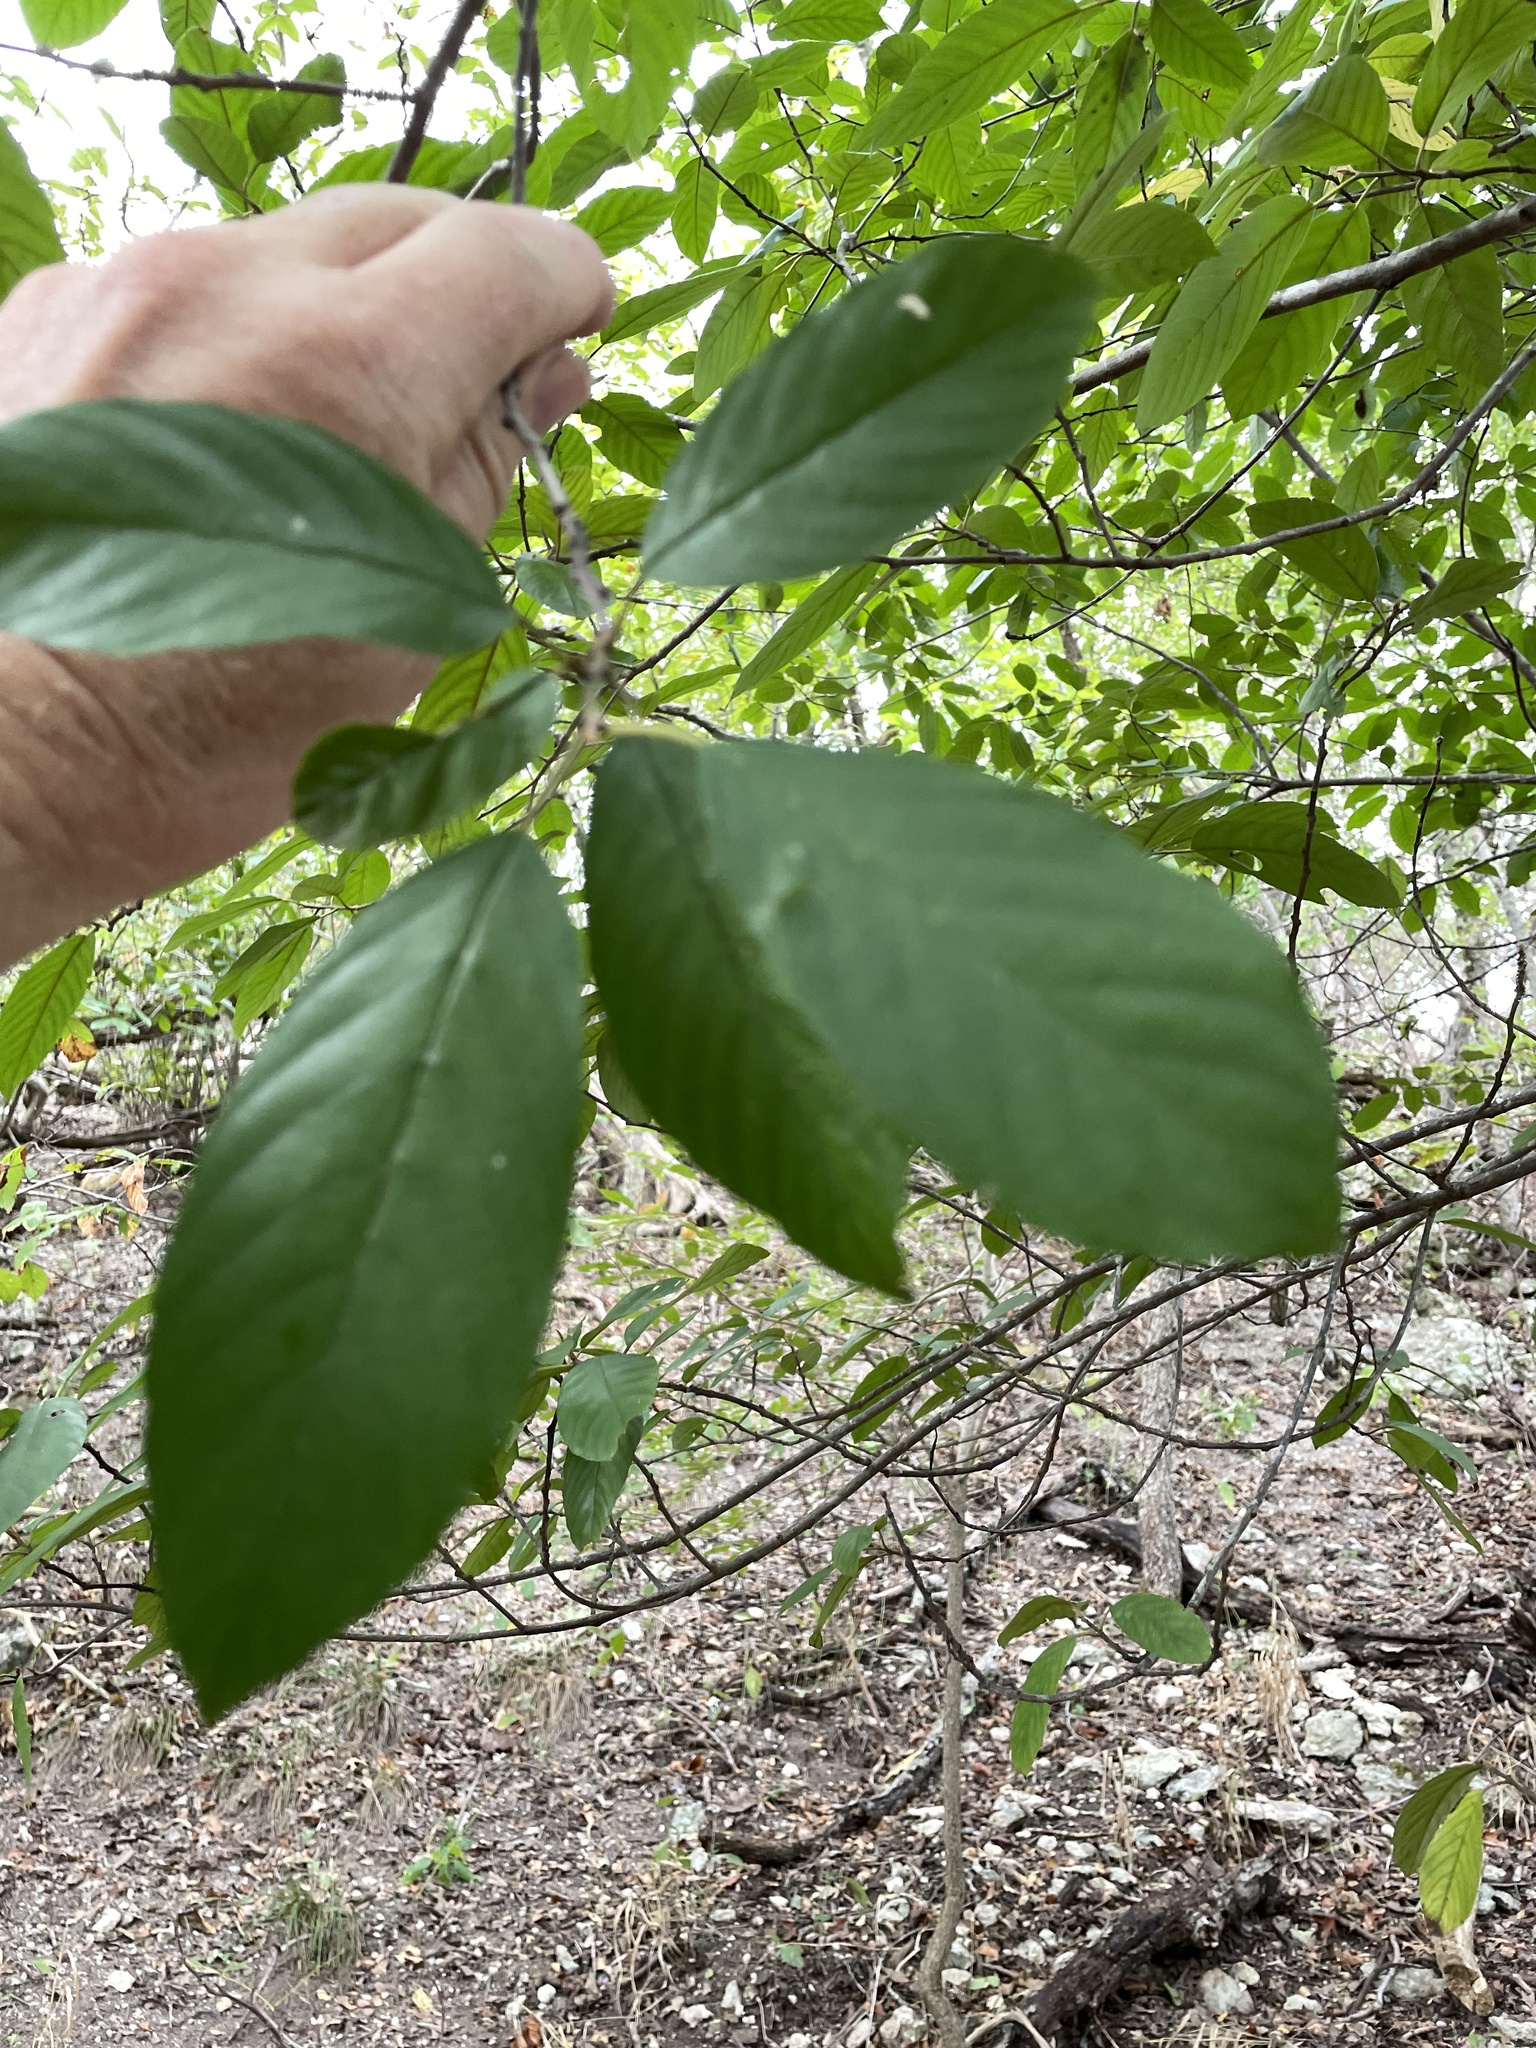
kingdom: Plantae
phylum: Tracheophyta
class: Magnoliopsida
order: Rosales
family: Rhamnaceae
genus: Frangula
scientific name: Frangula caroliniana
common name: Carolina buckthorn
